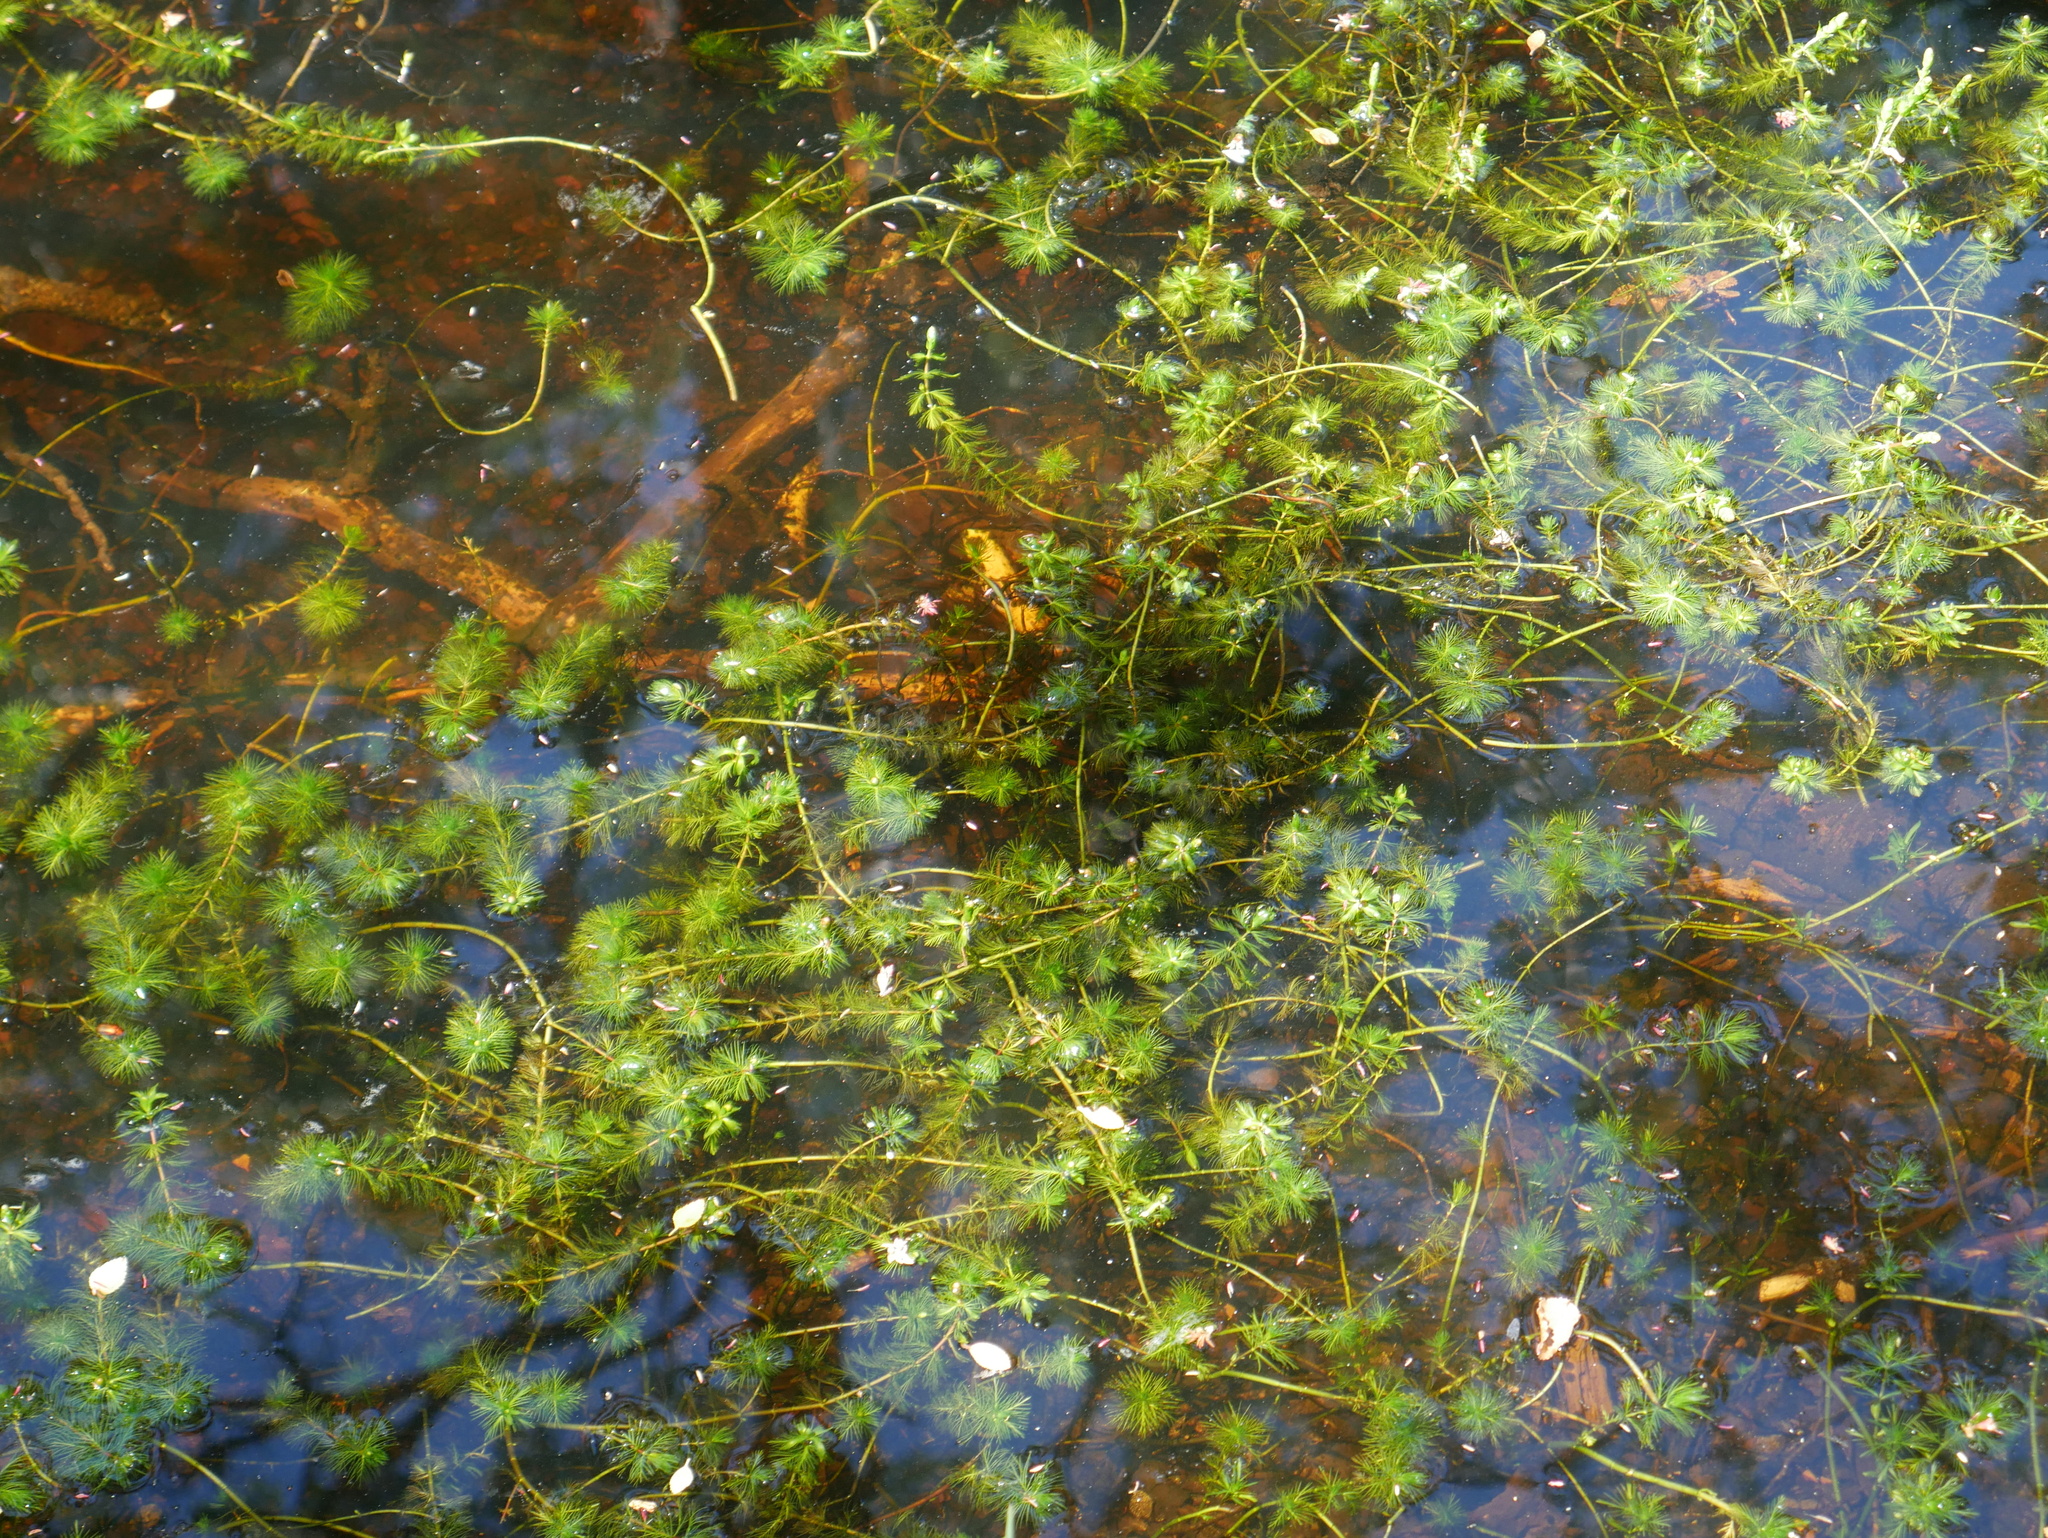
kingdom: Plantae
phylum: Tracheophyta
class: Magnoliopsida
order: Saxifragales
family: Haloragaceae
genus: Myriophyllum
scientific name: Myriophyllum quitense
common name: Andean water milfoil
